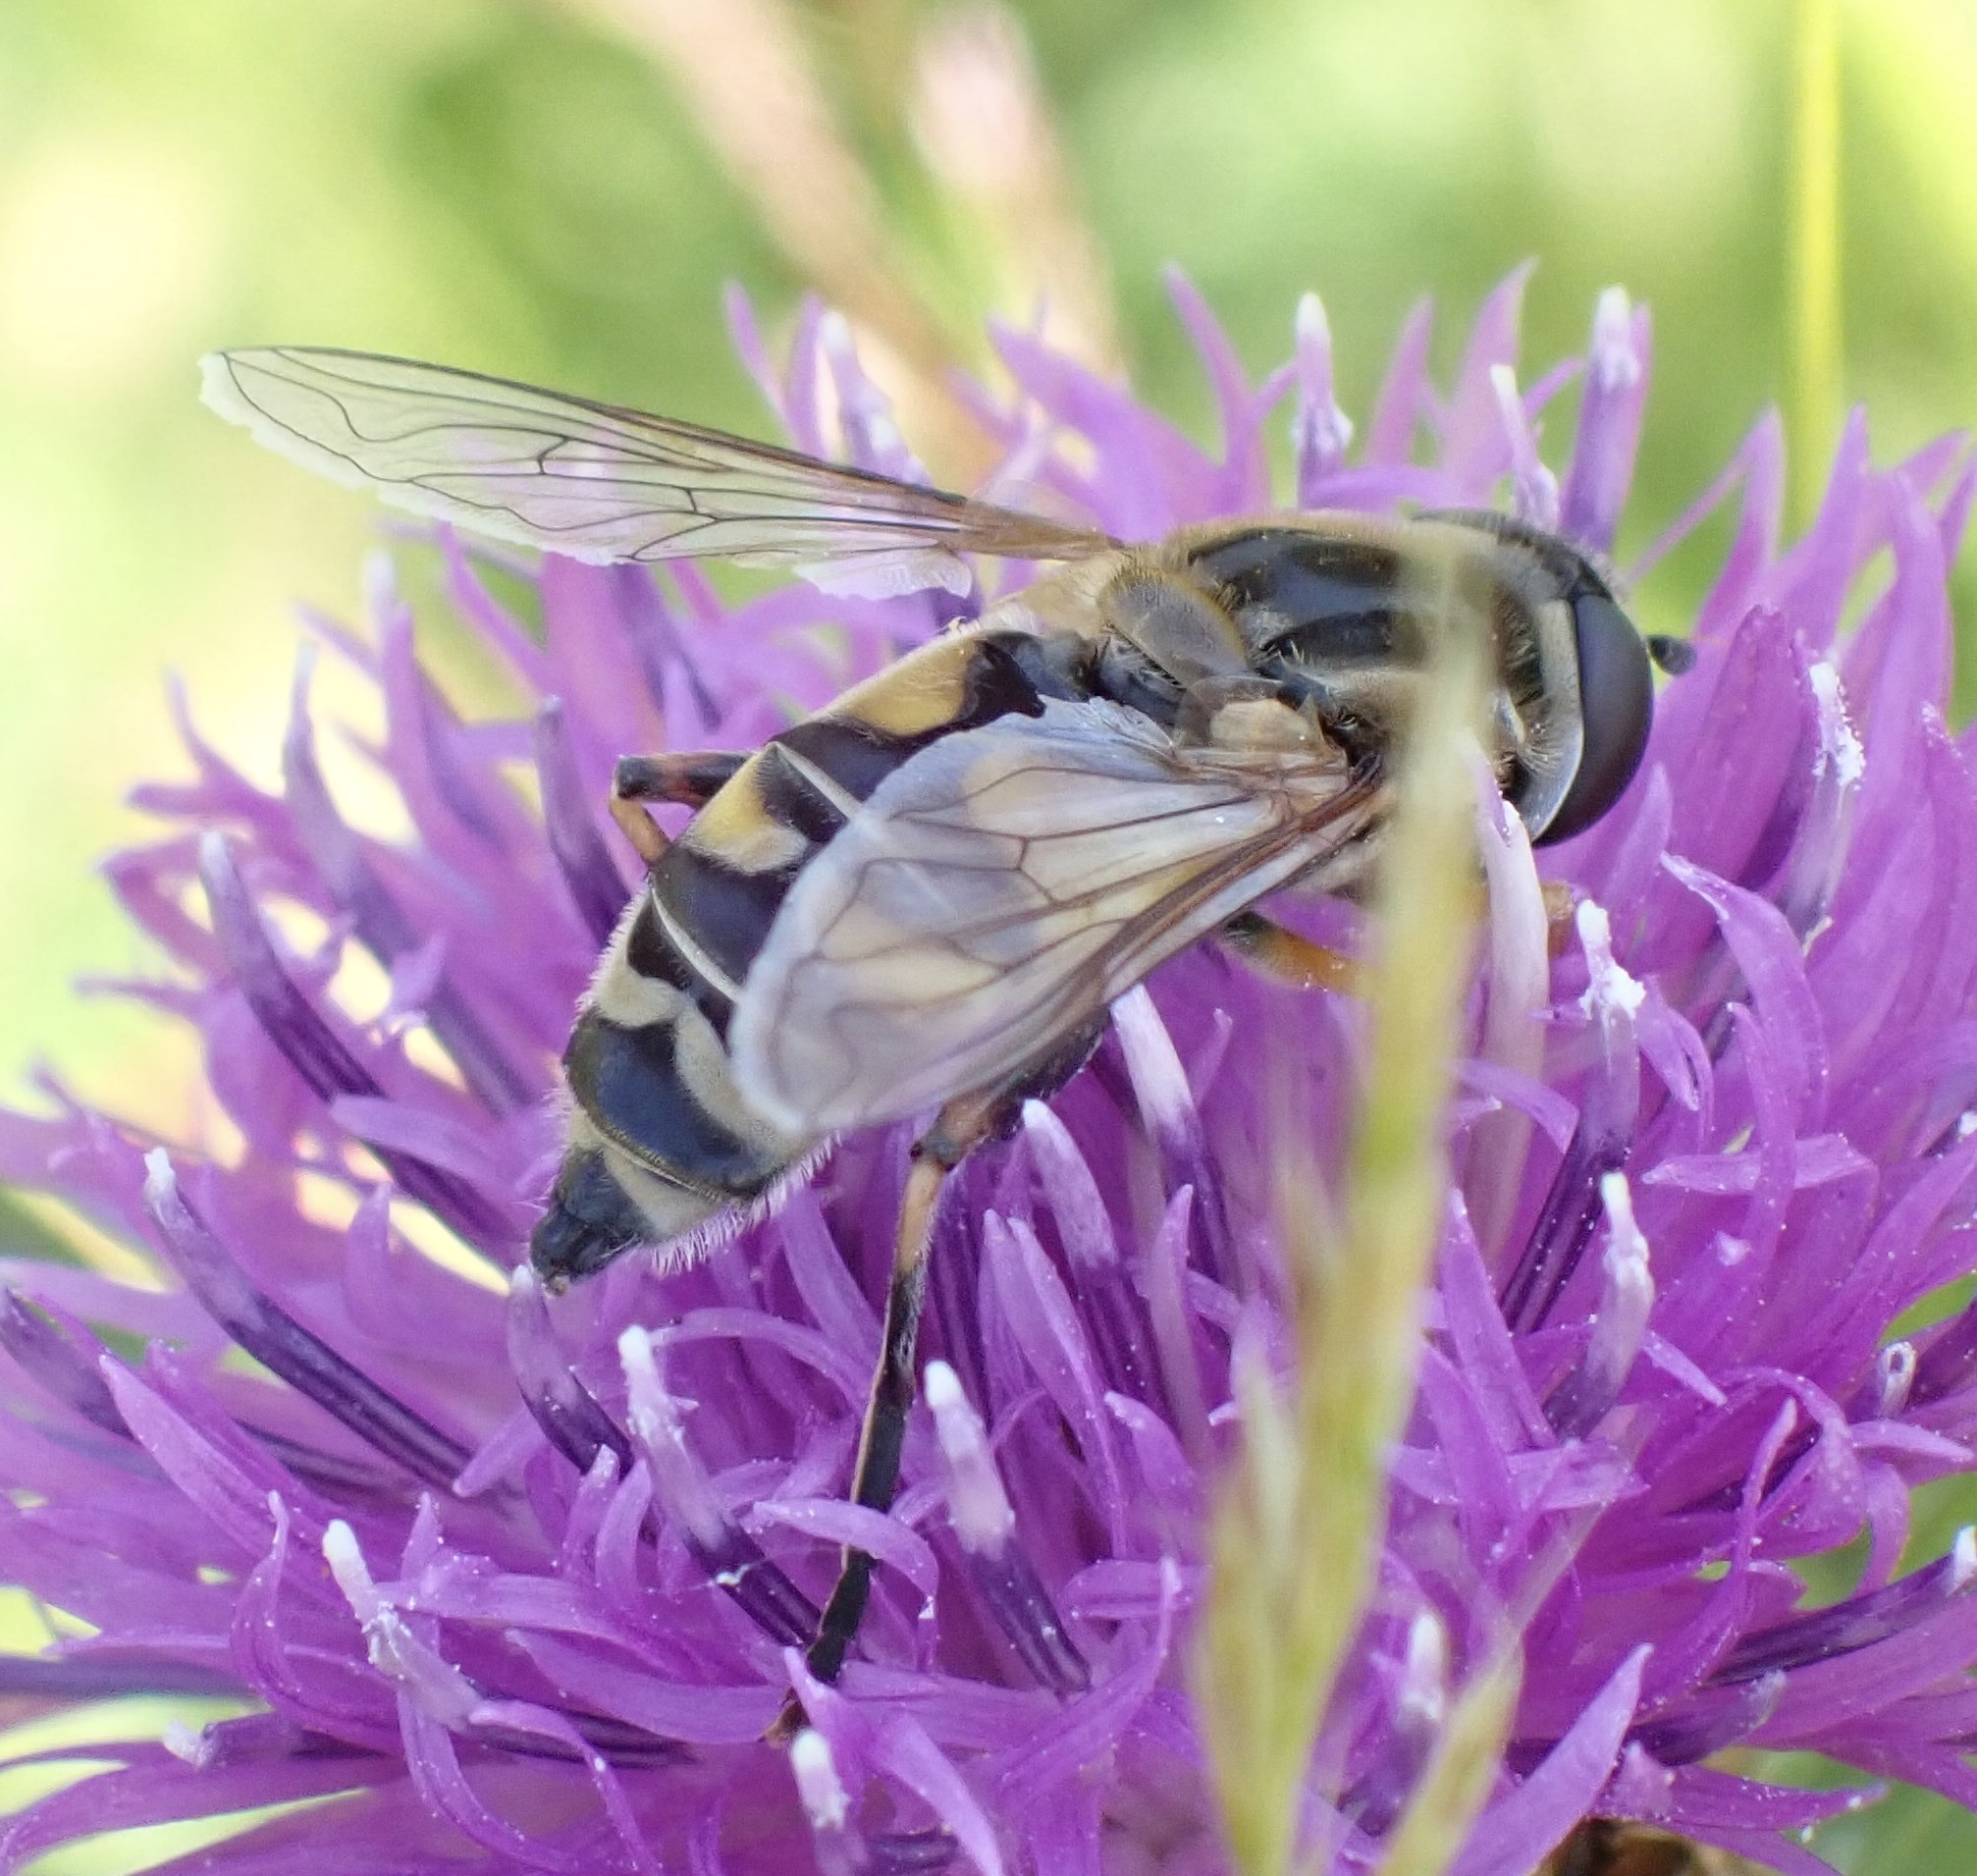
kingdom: Animalia
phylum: Arthropoda
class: Insecta
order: Diptera
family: Syrphidae
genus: Helophilus
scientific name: Helophilus trivittatus
